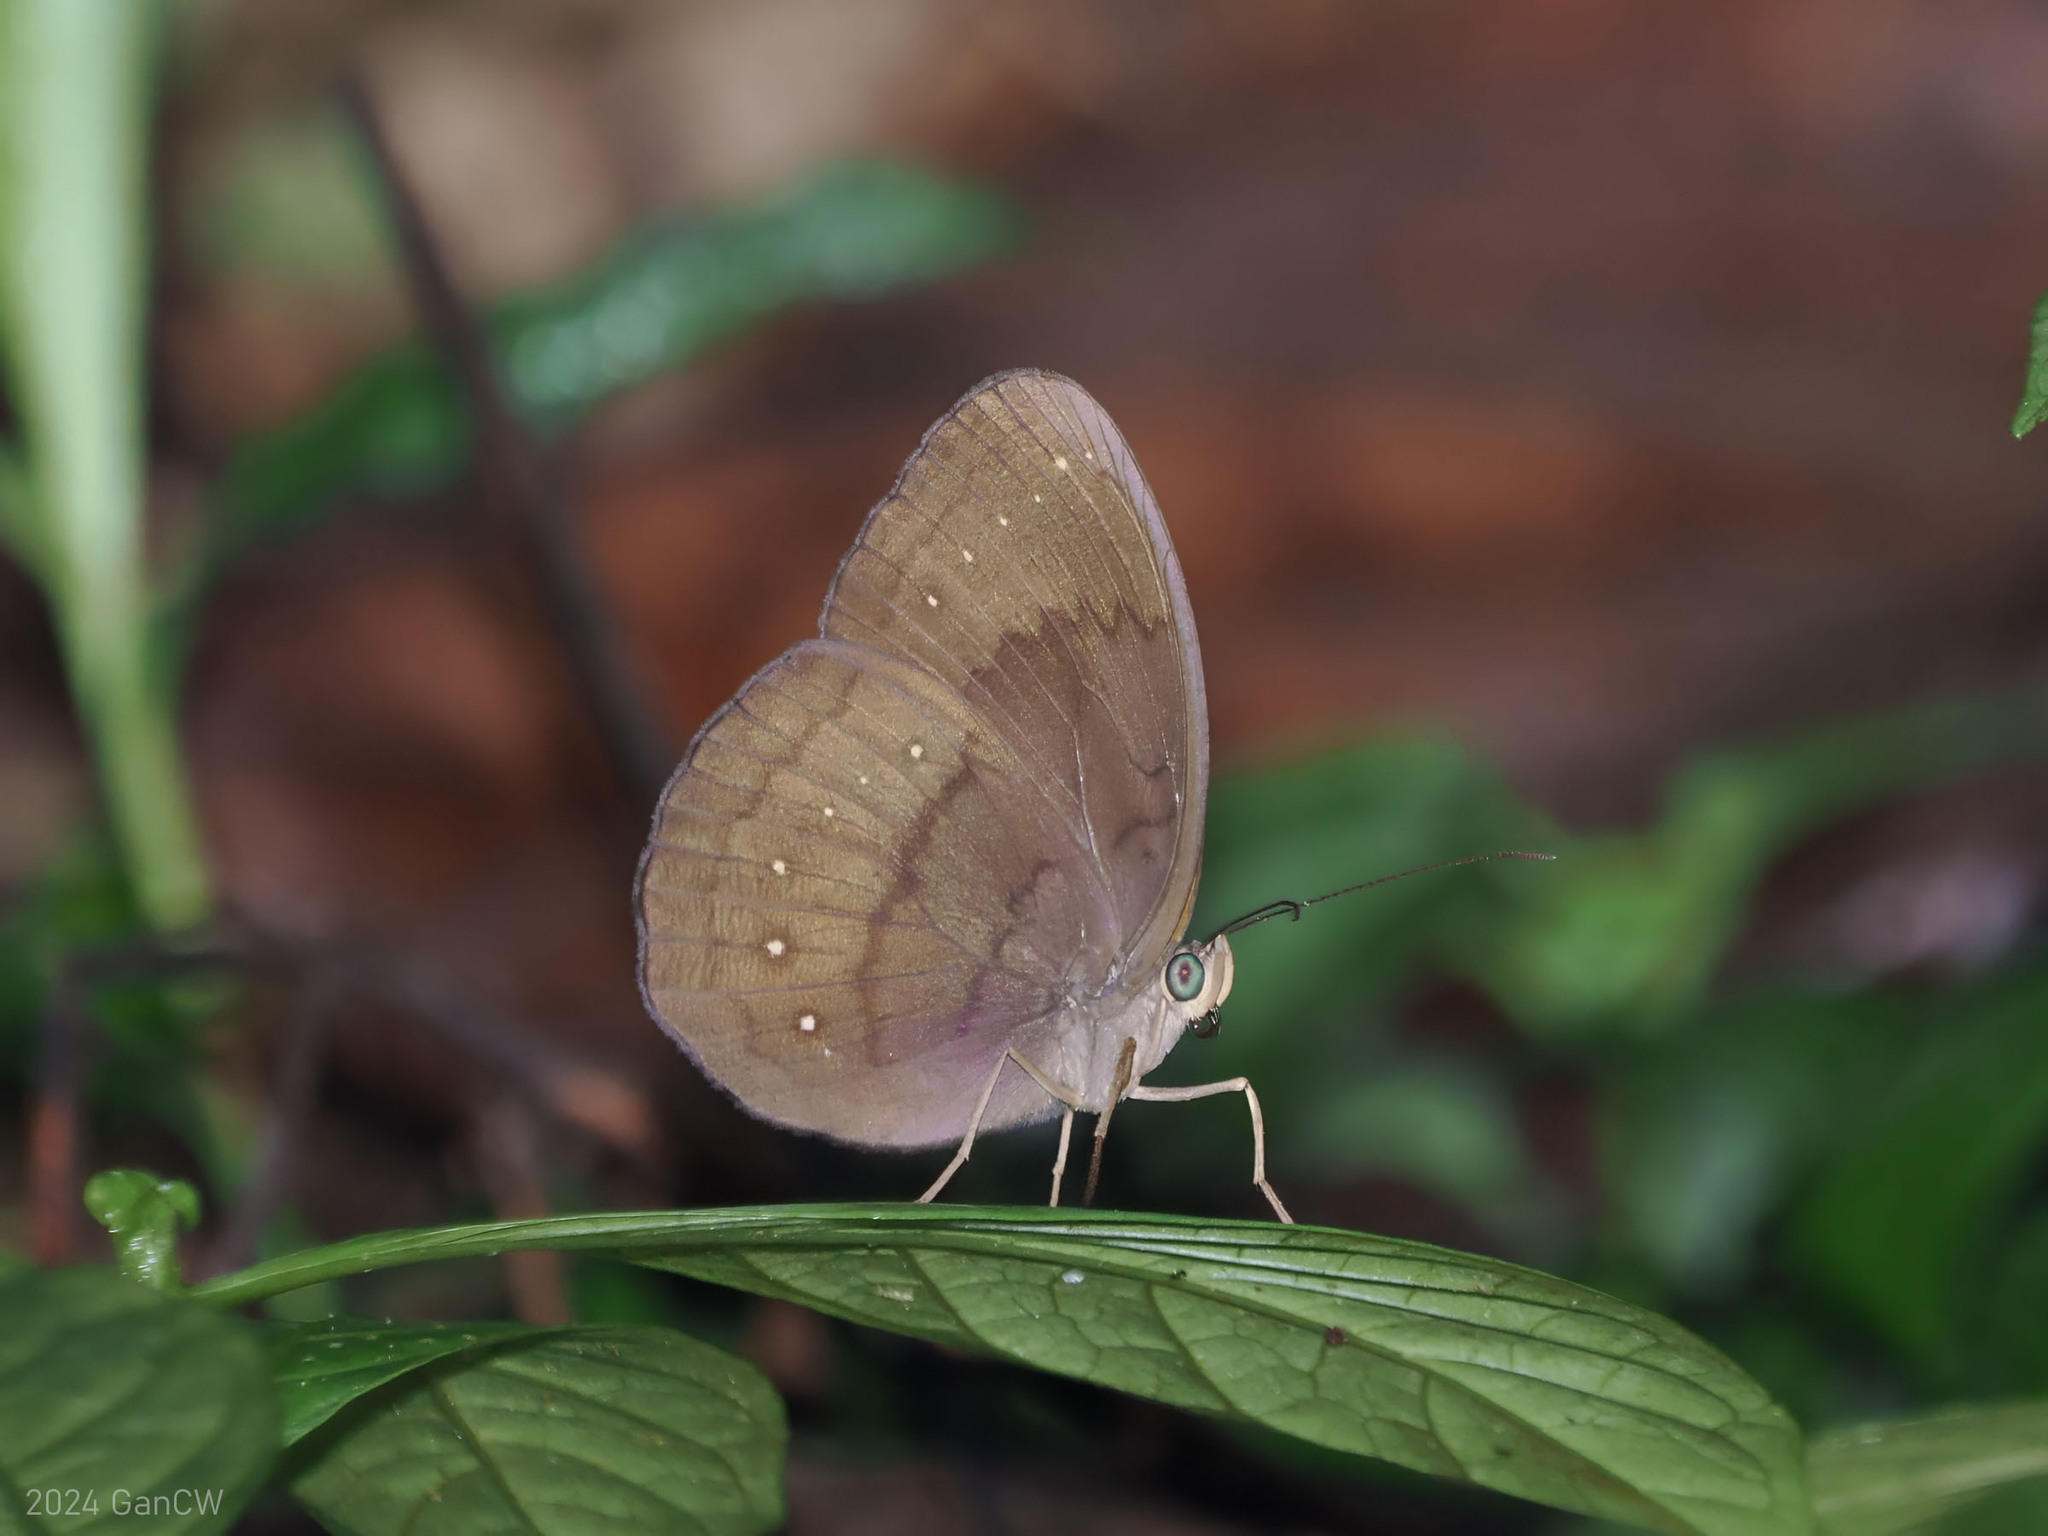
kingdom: Animalia
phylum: Arthropoda
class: Insecta
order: Lepidoptera
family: Nymphalidae
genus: Faunis
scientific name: Faunis canens
